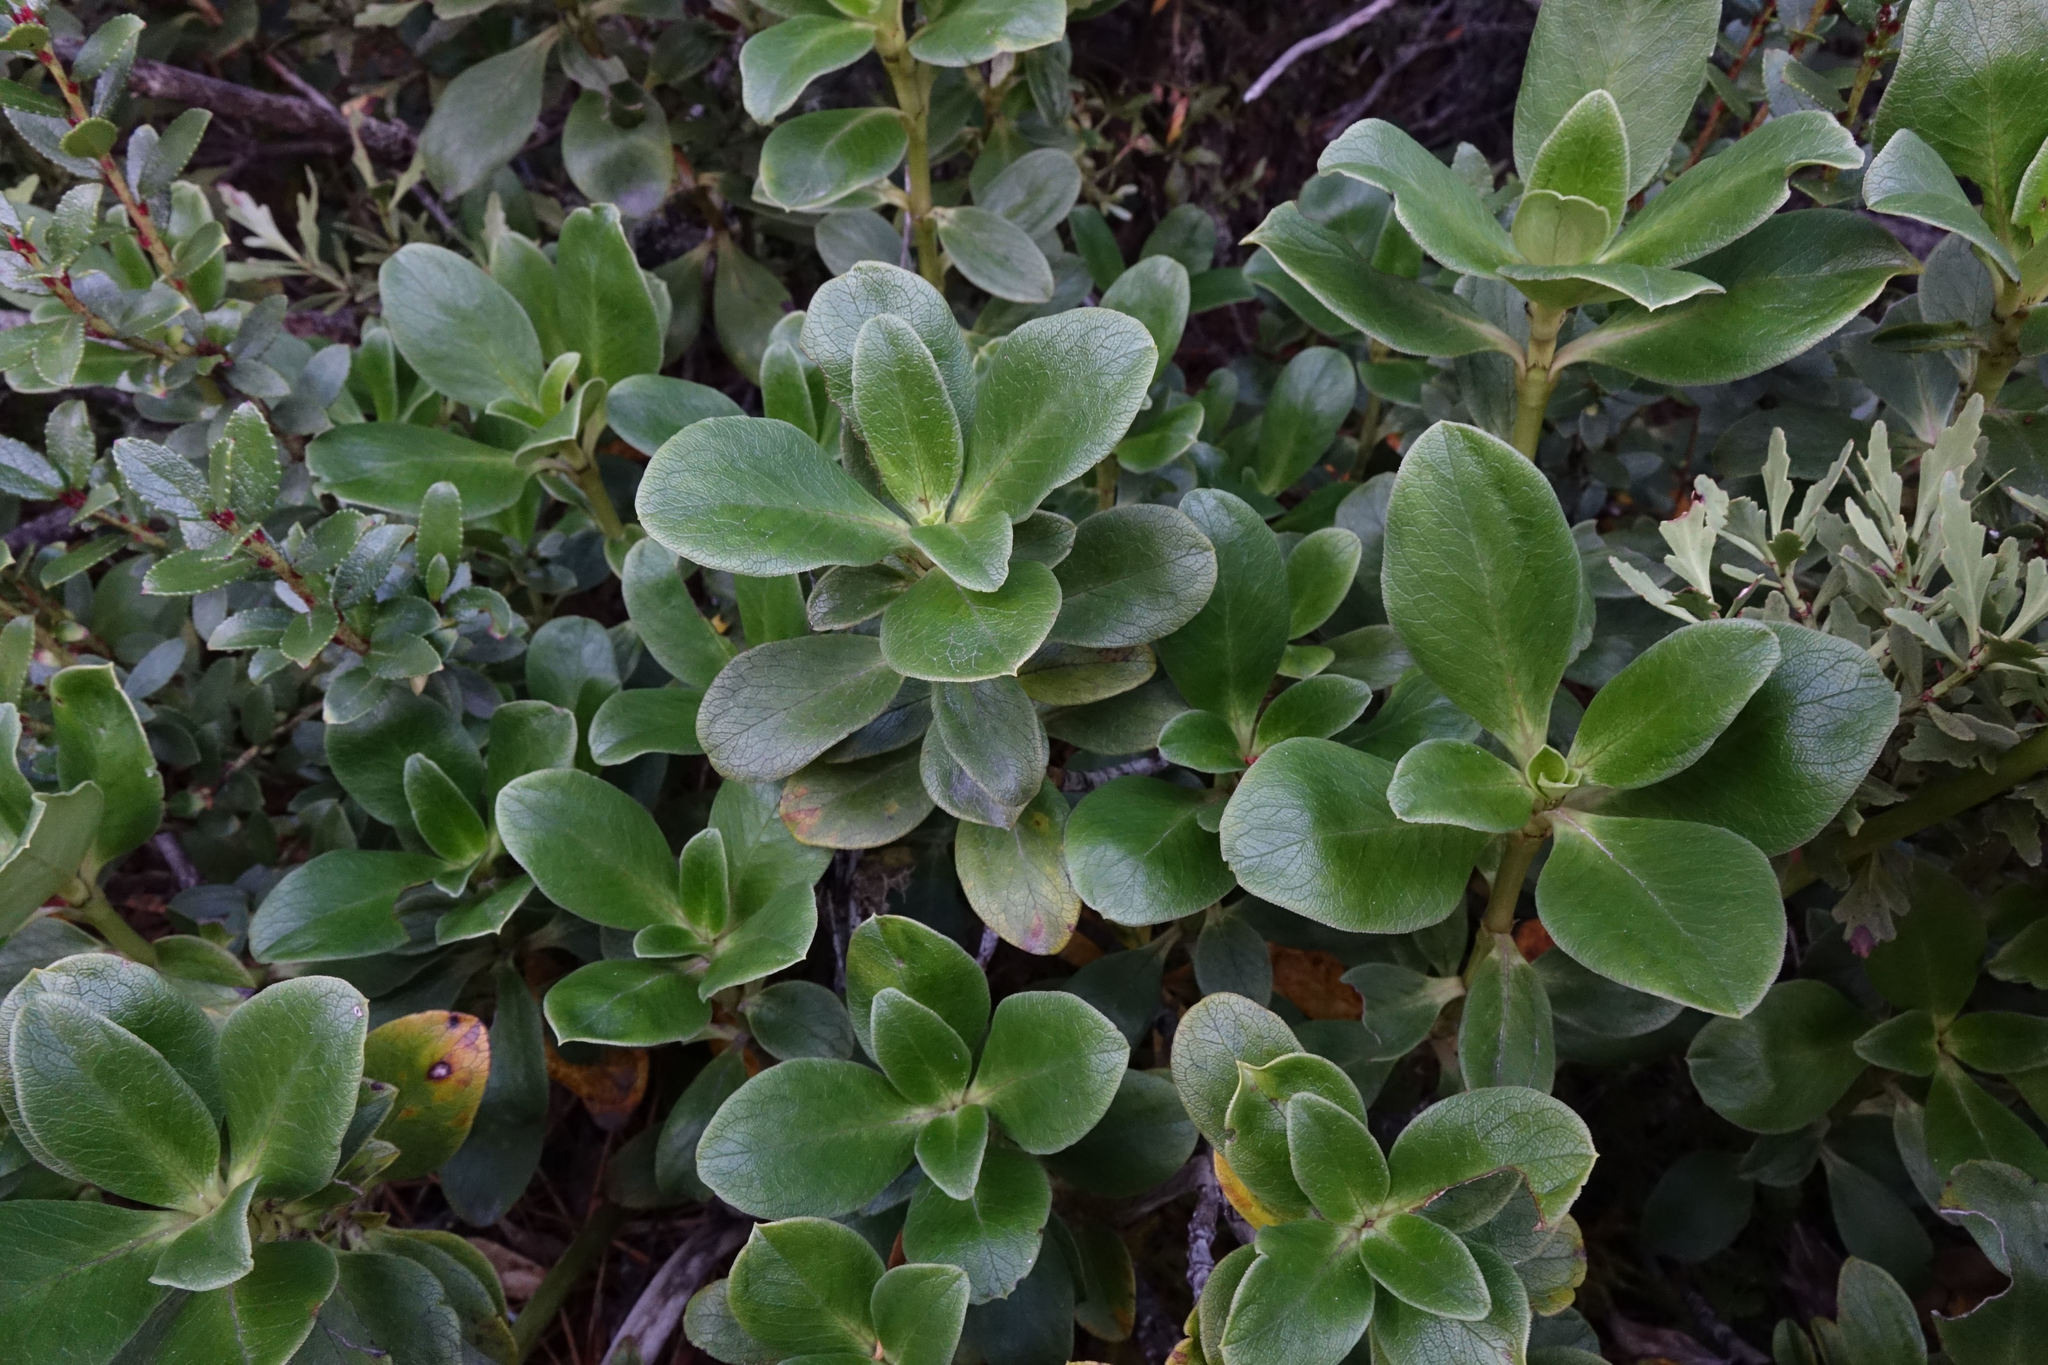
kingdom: Plantae
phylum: Tracheophyta
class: Magnoliopsida
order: Gentianales
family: Rubiaceae
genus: Coprosma
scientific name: Coprosma serrulata
